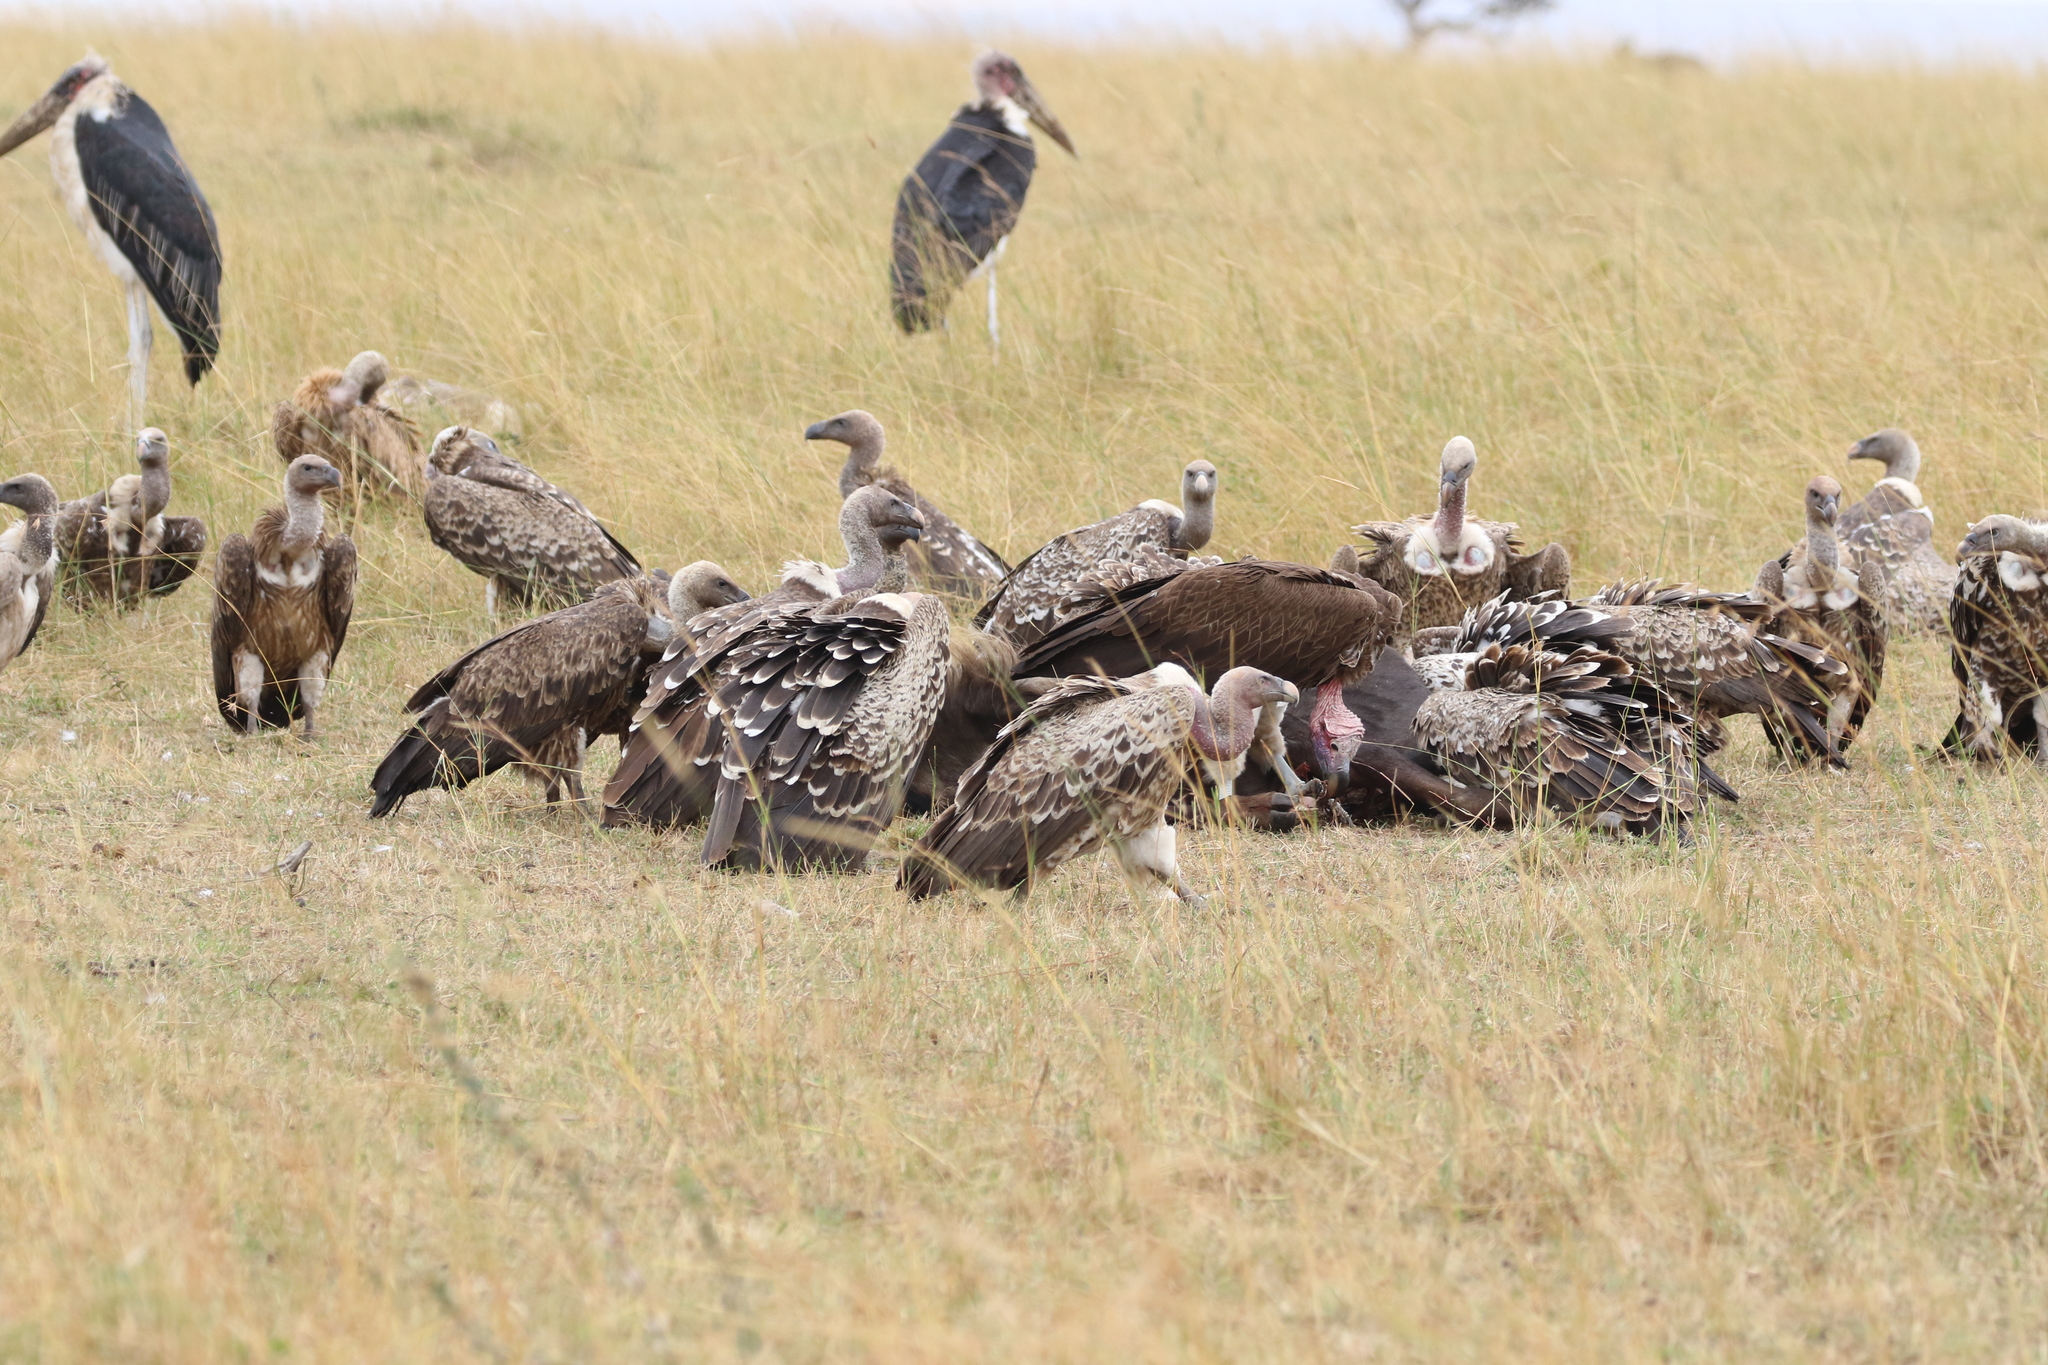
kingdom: Animalia
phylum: Chordata
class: Aves
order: Accipitriformes
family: Accipitridae
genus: Torgos
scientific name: Torgos tracheliotos
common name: Lappet-faced vulture
